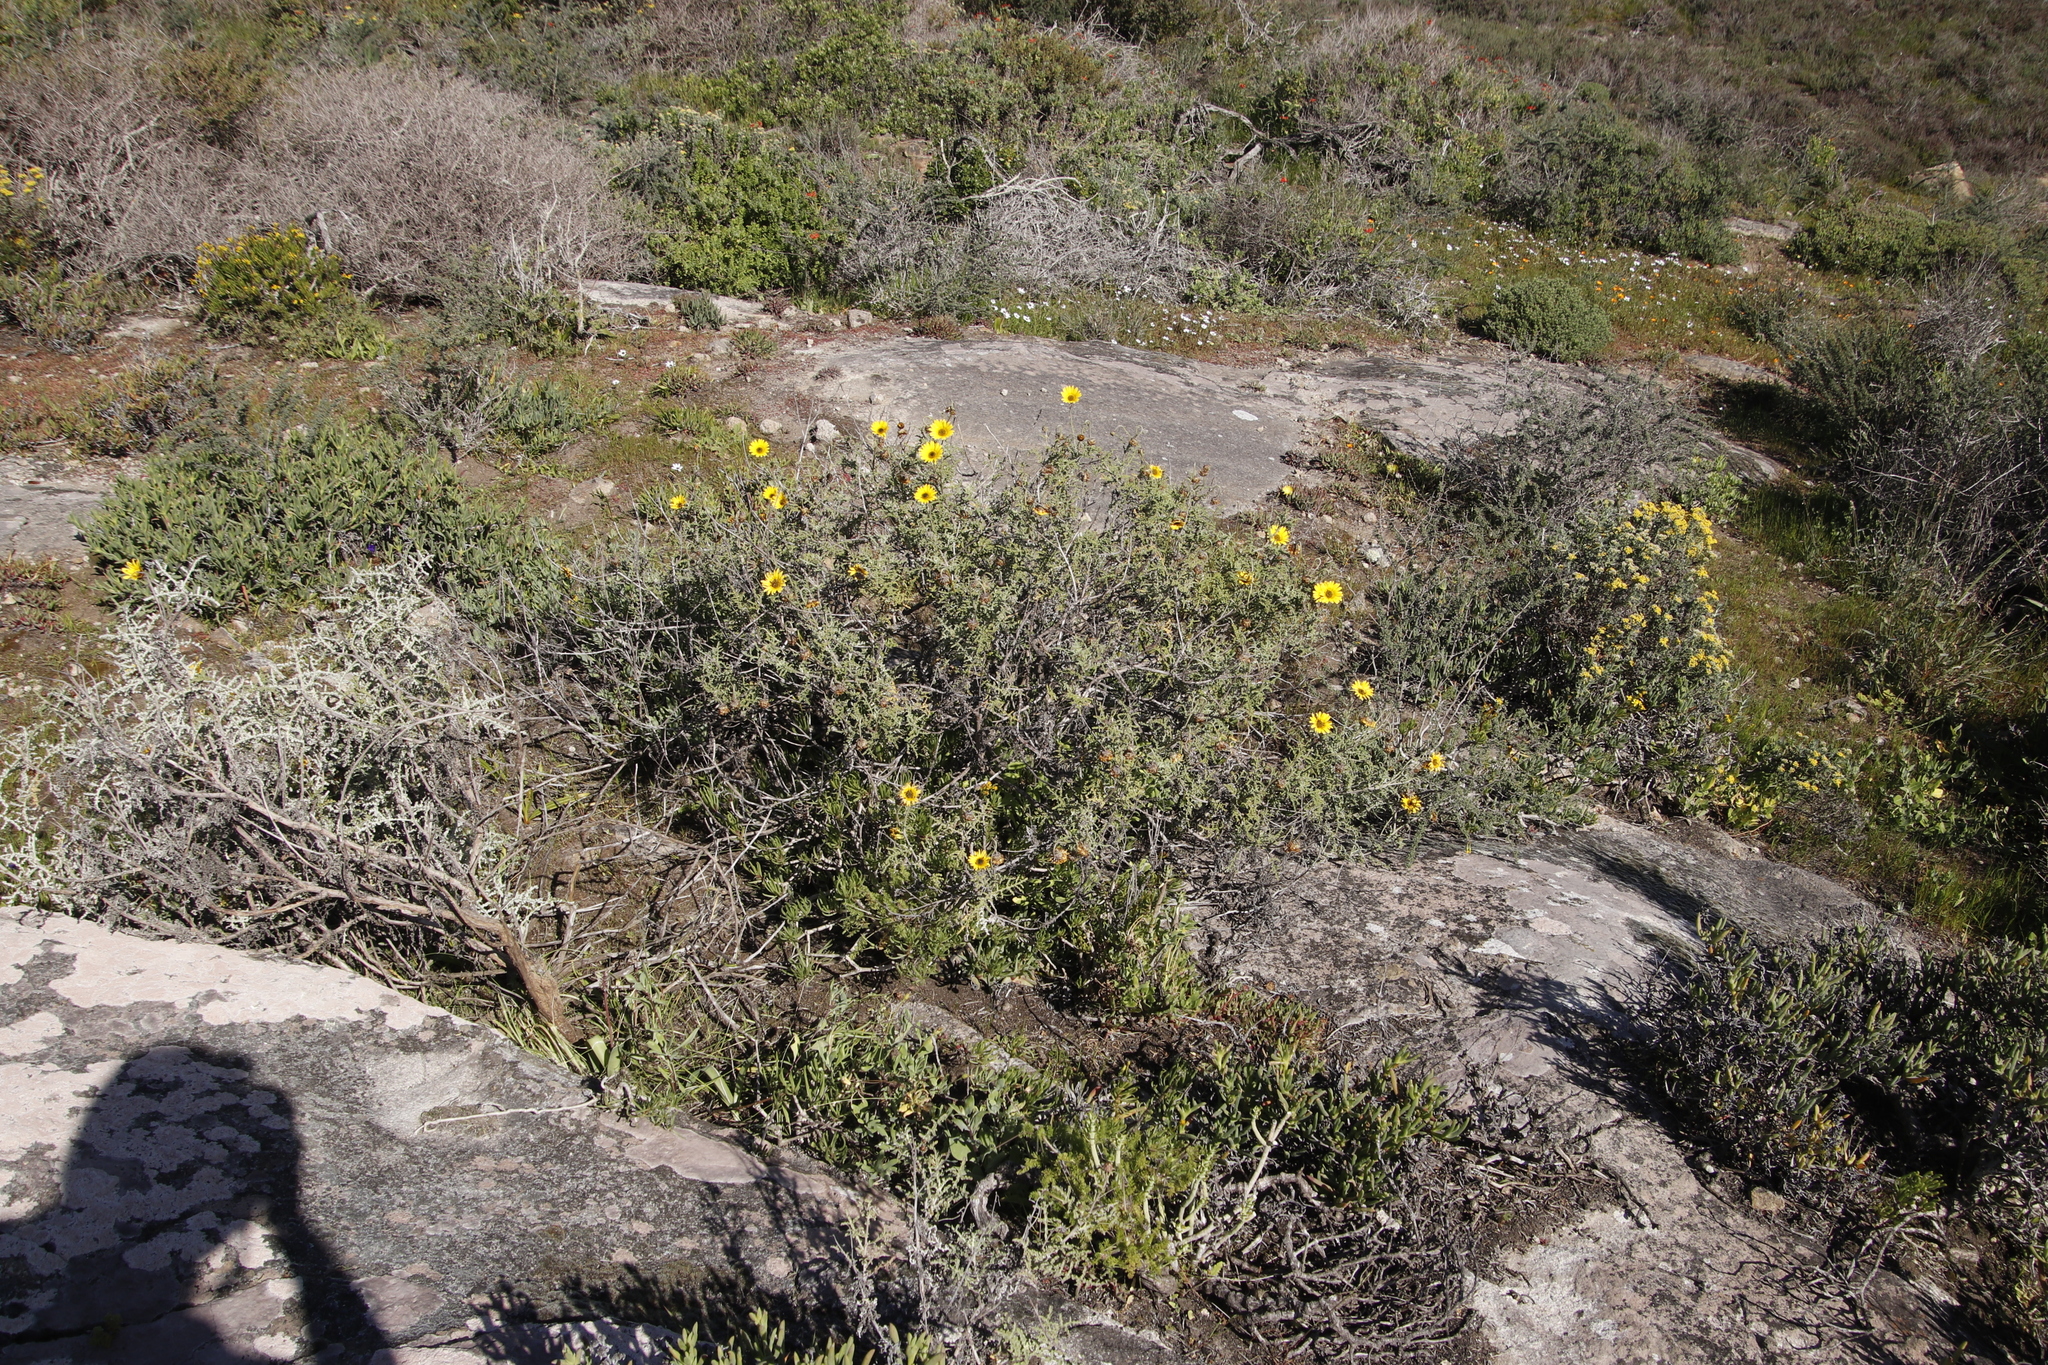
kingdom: Plantae
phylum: Tracheophyta
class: Magnoliopsida
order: Asterales
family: Asteraceae
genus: Arctotis
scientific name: Arctotis laciniata
